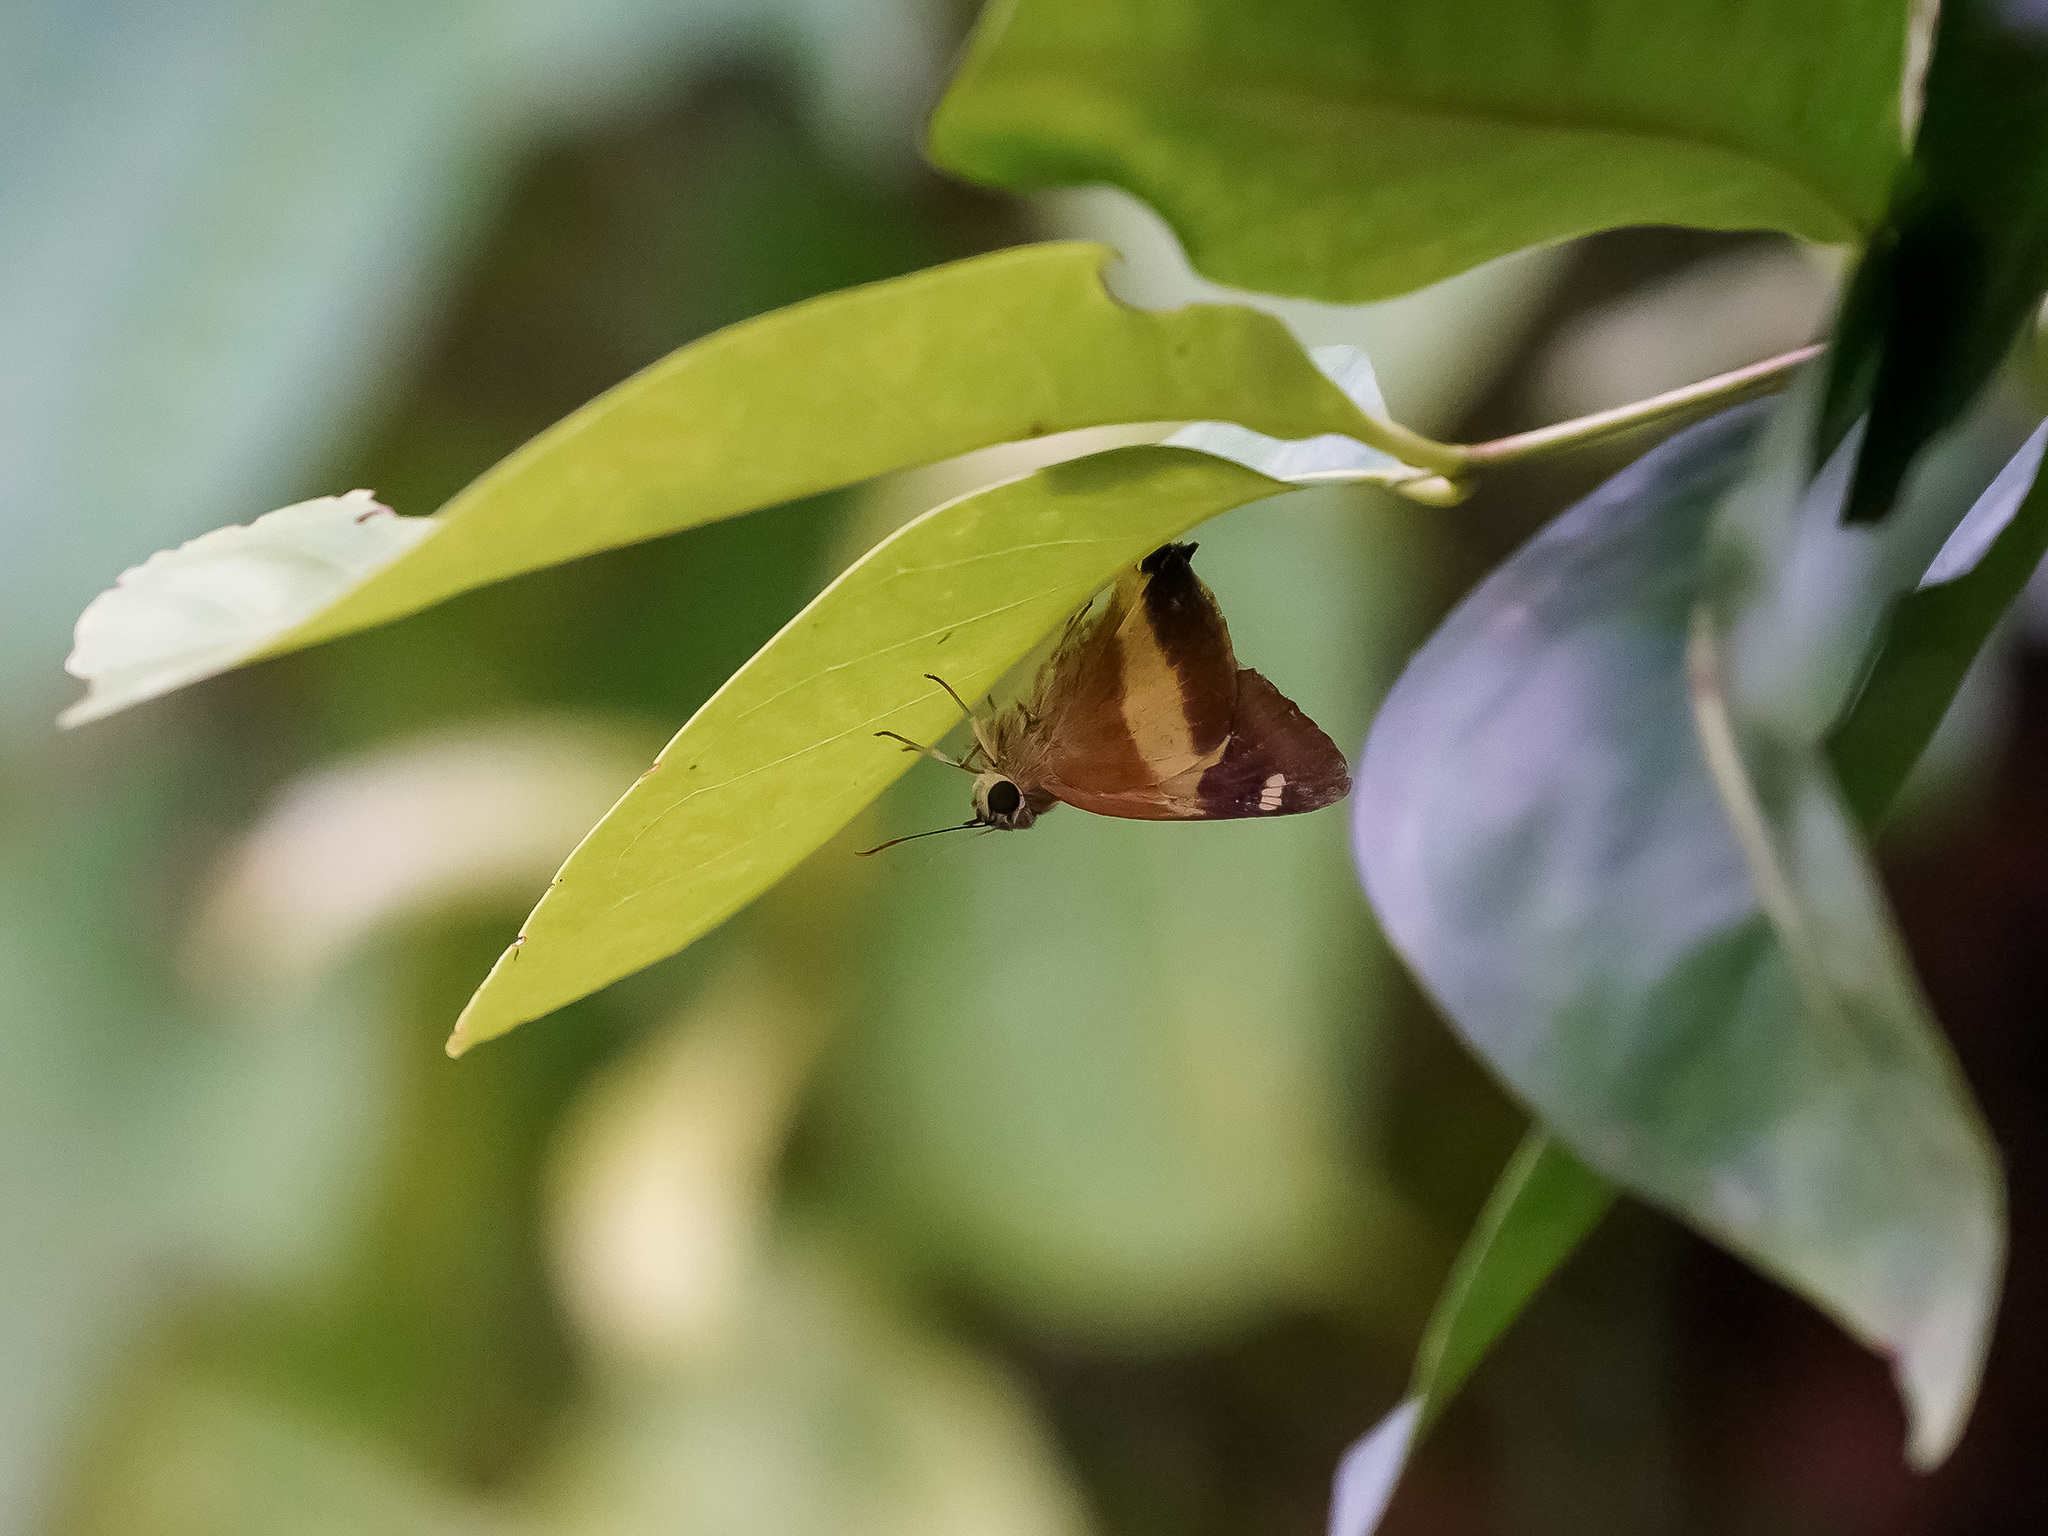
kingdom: Animalia
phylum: Arthropoda
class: Insecta
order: Lepidoptera
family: Hesperiidae
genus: Hasora
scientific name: Hasora schoenherr
